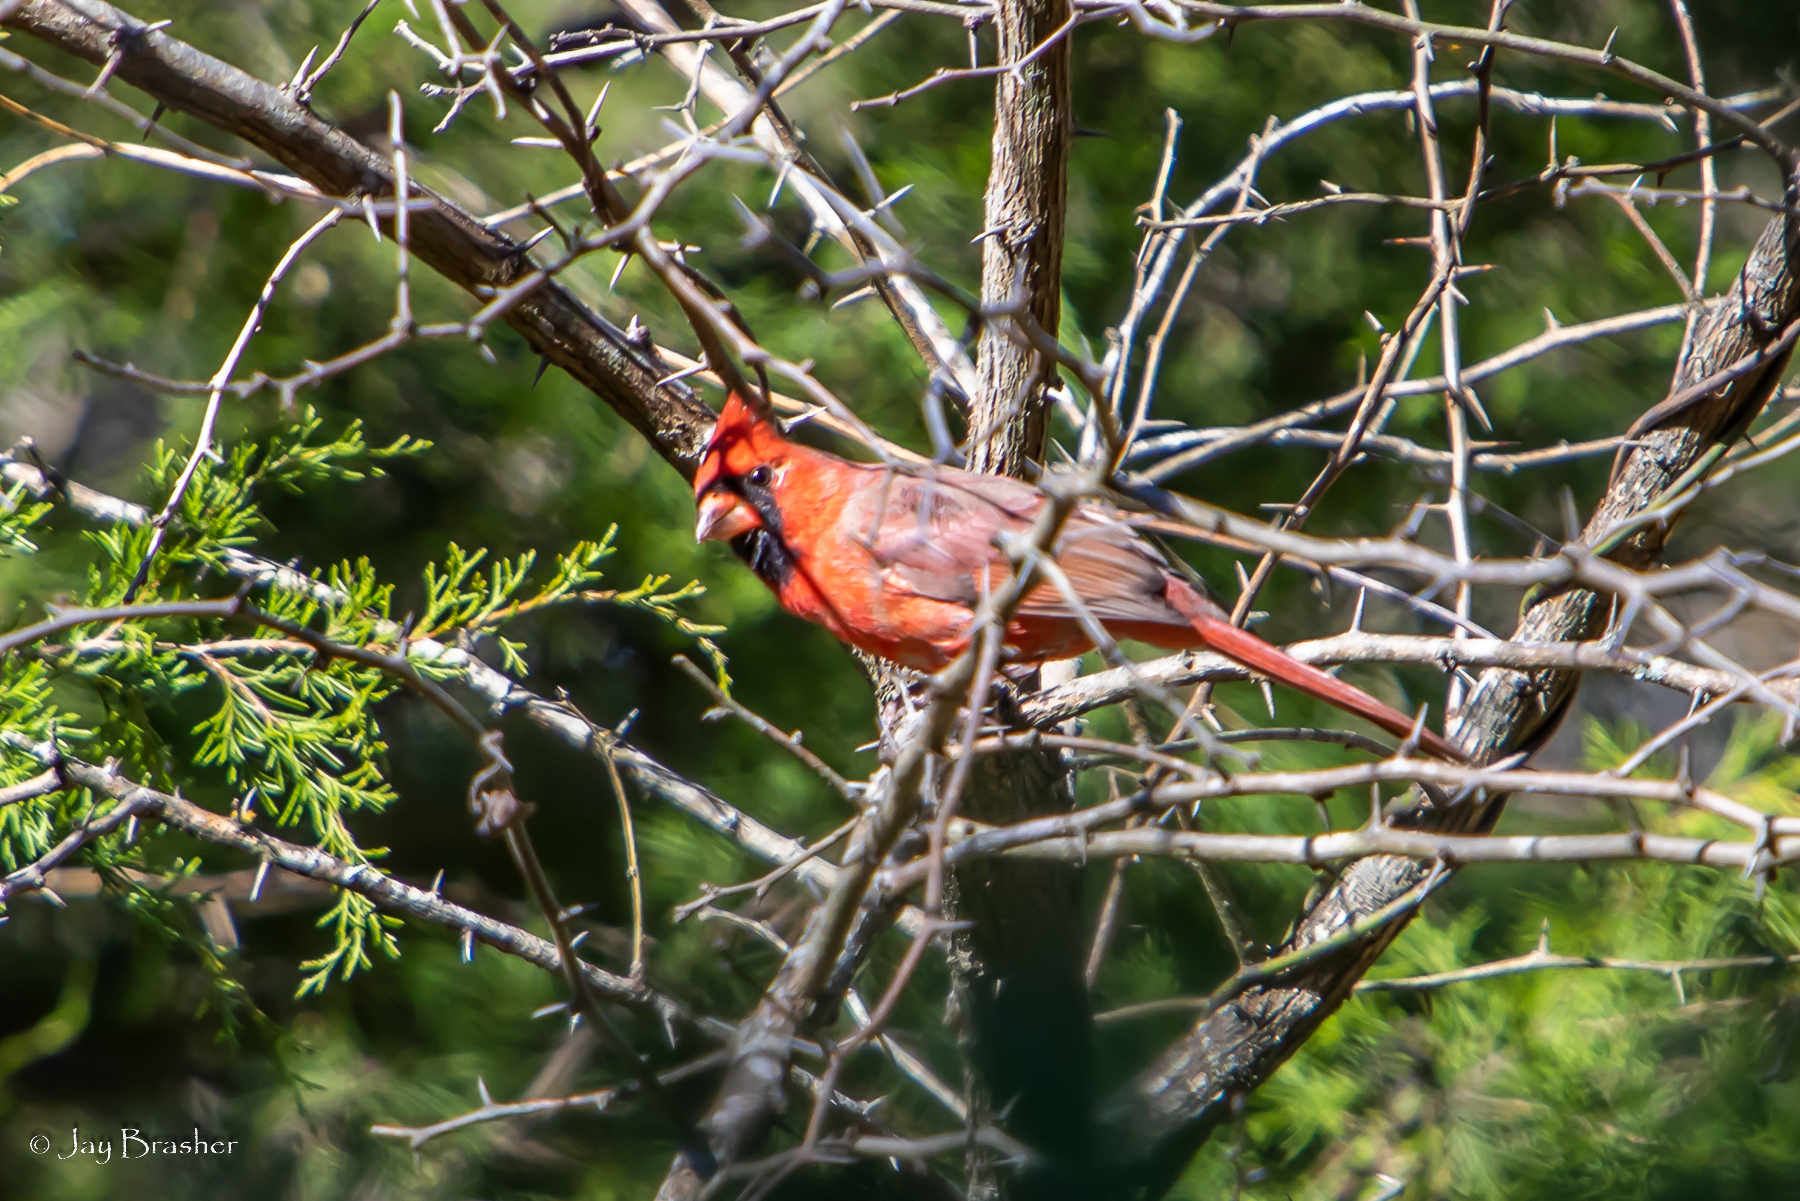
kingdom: Animalia
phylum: Chordata
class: Aves
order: Passeriformes
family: Cardinalidae
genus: Cardinalis
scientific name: Cardinalis cardinalis
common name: Northern cardinal
